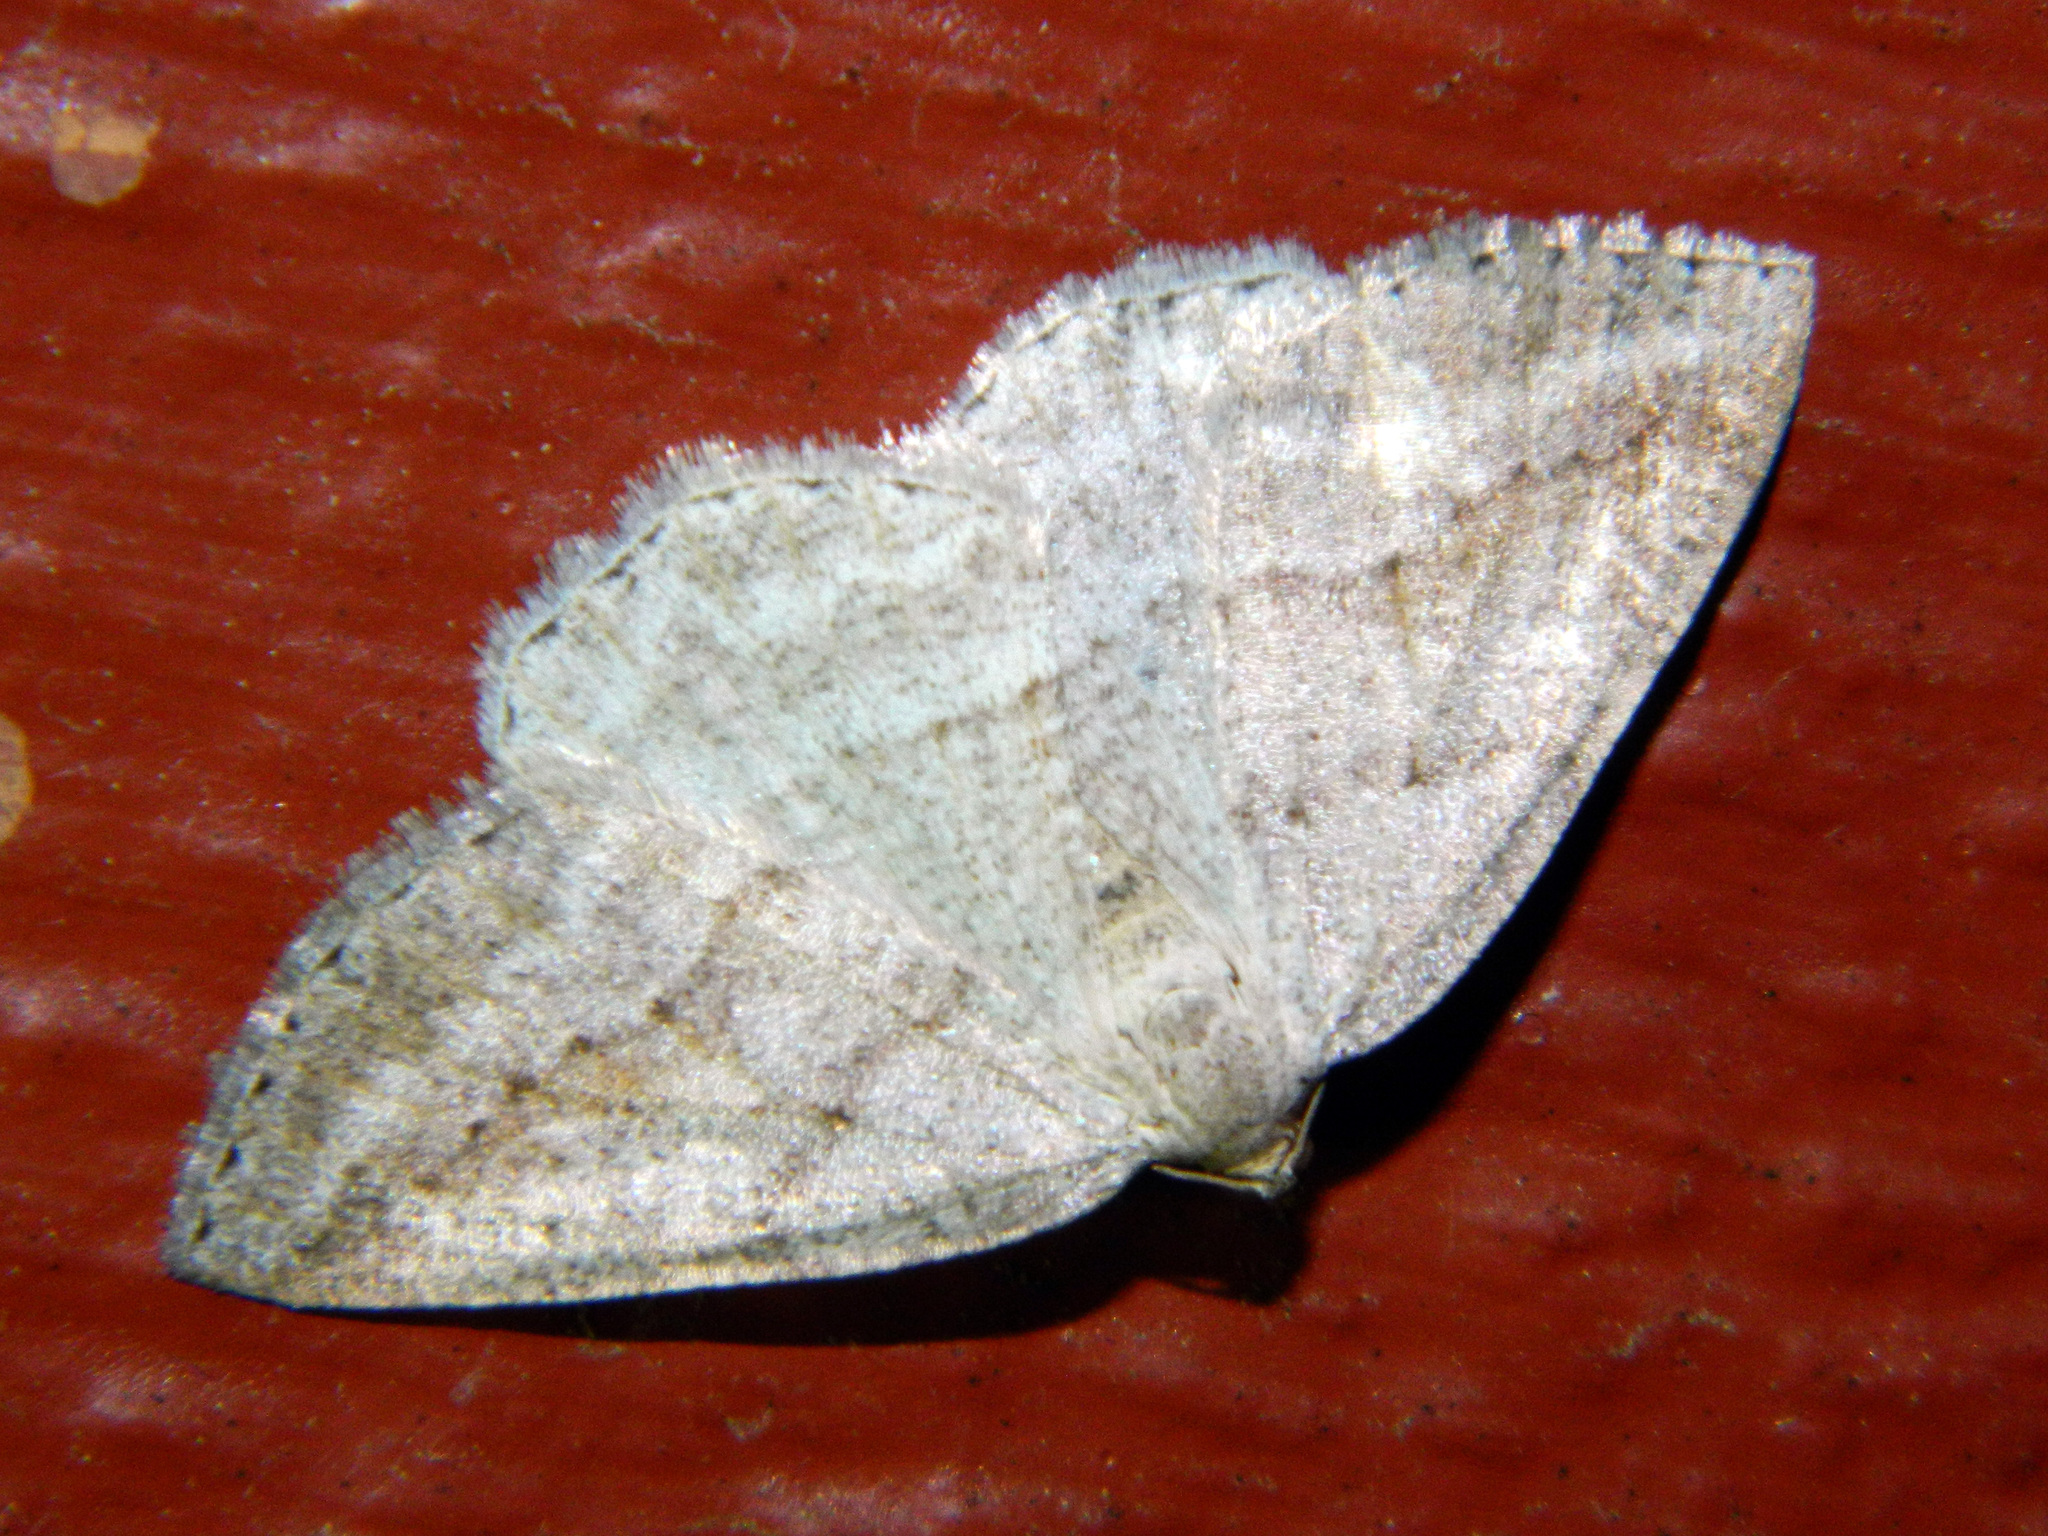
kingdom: Animalia
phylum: Arthropoda
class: Insecta
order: Lepidoptera
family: Geometridae
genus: Tacparia
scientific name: Tacparia detersata
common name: Pale alder moth
